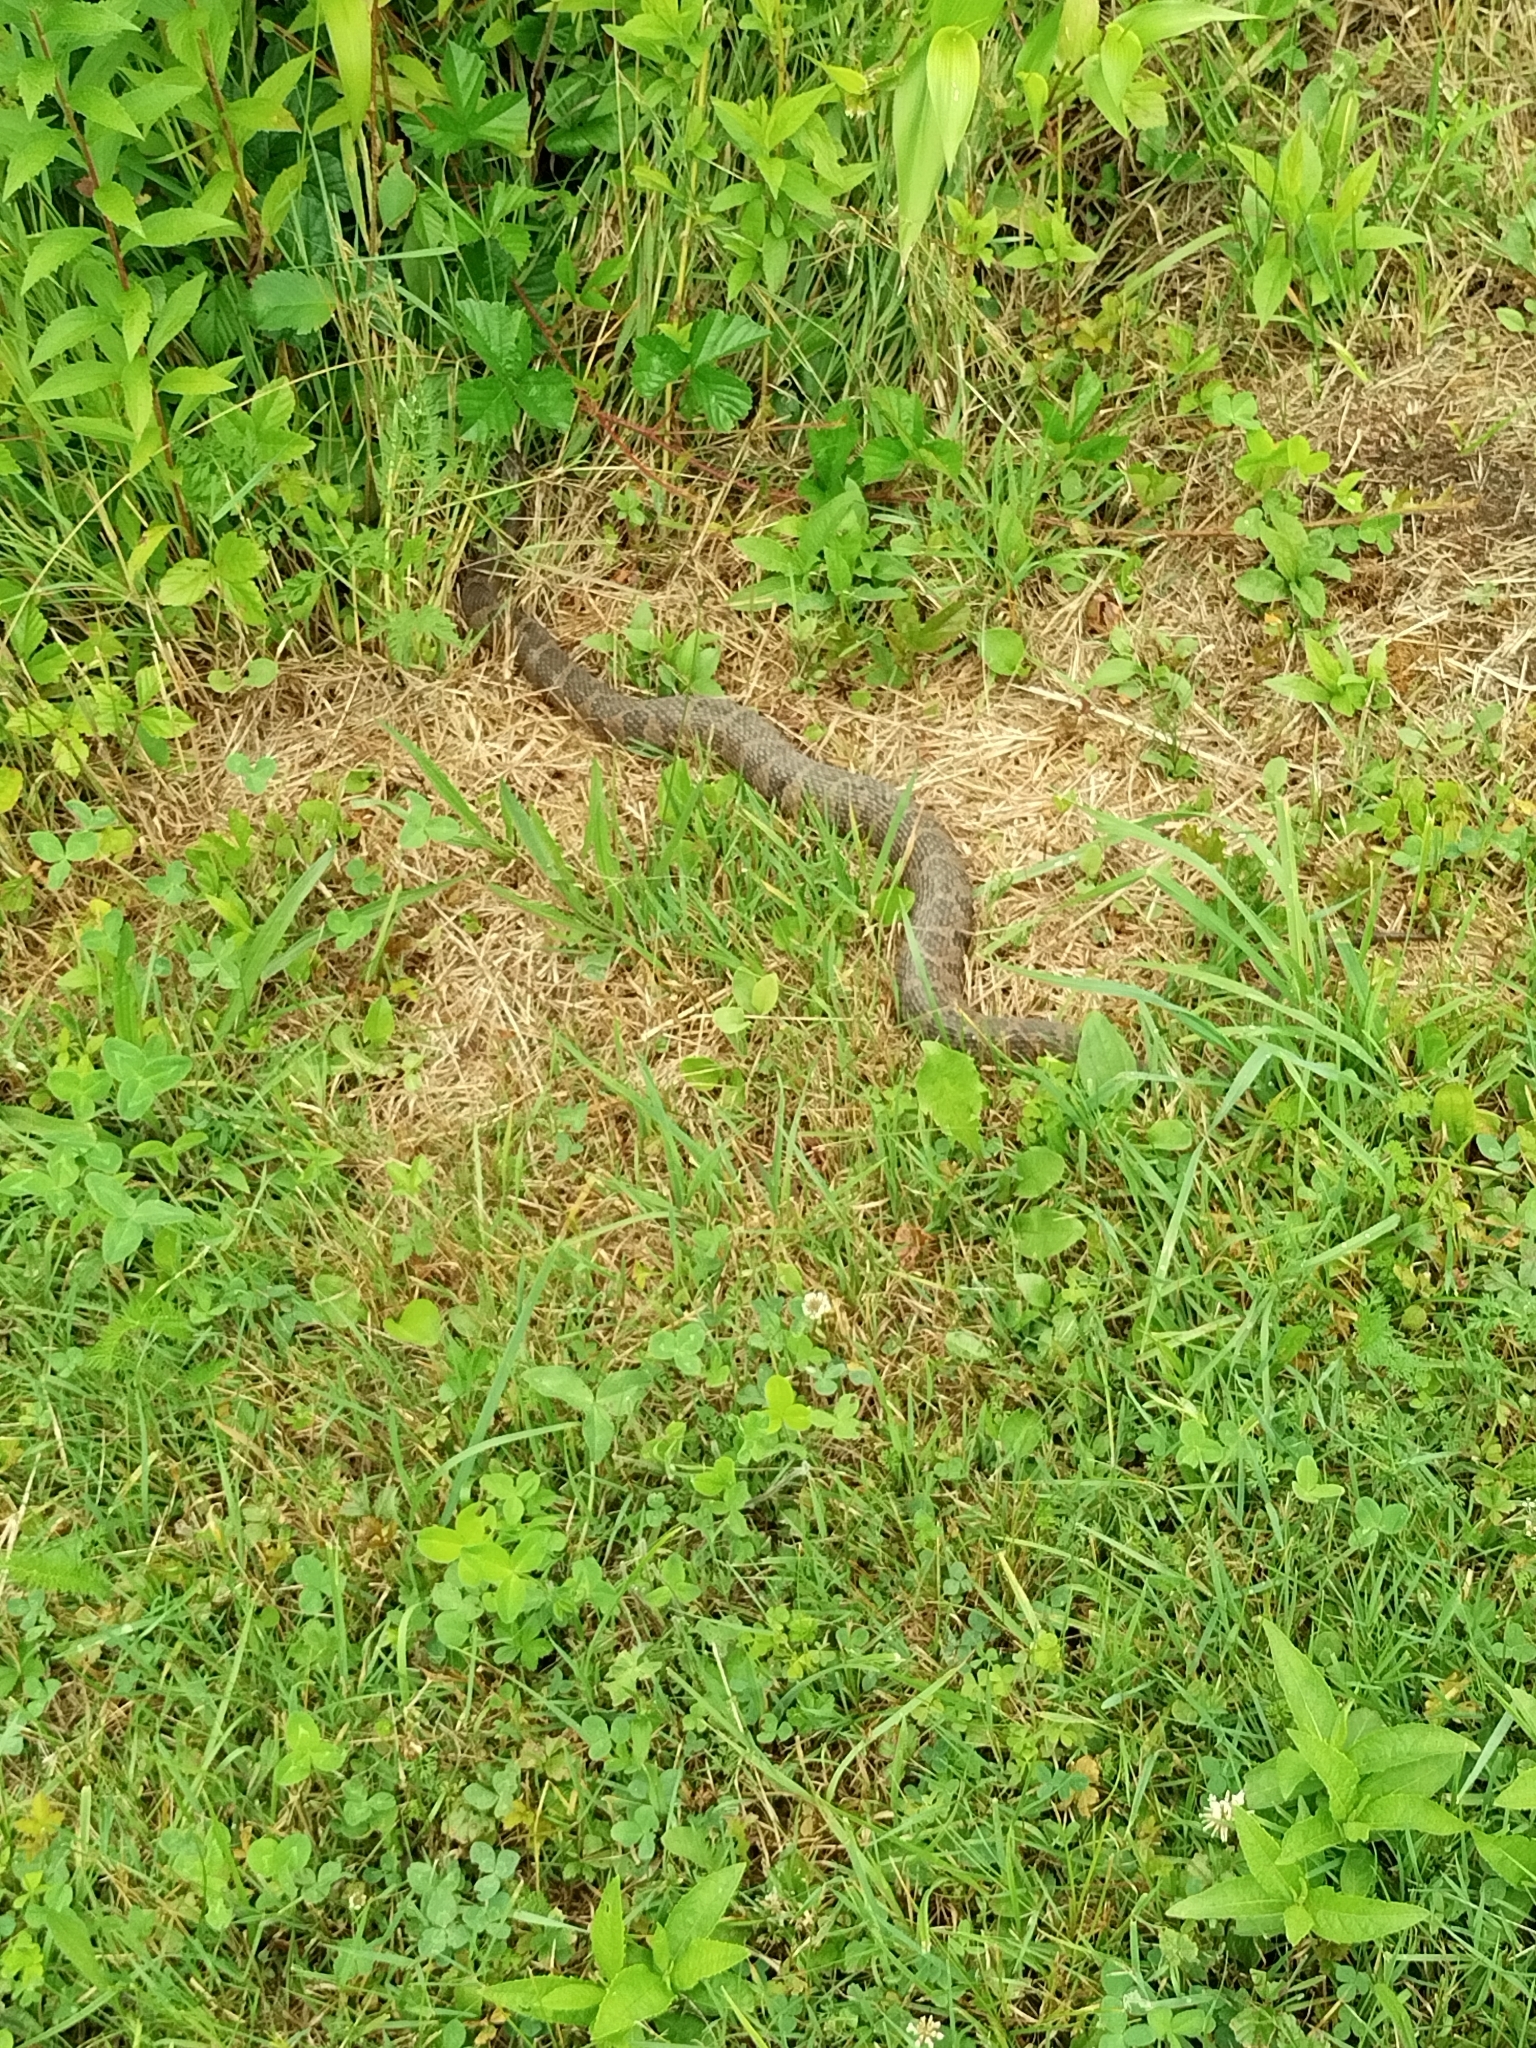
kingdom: Animalia
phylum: Chordata
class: Squamata
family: Colubridae
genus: Nerodia
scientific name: Nerodia sipedon
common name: Northern water snake
